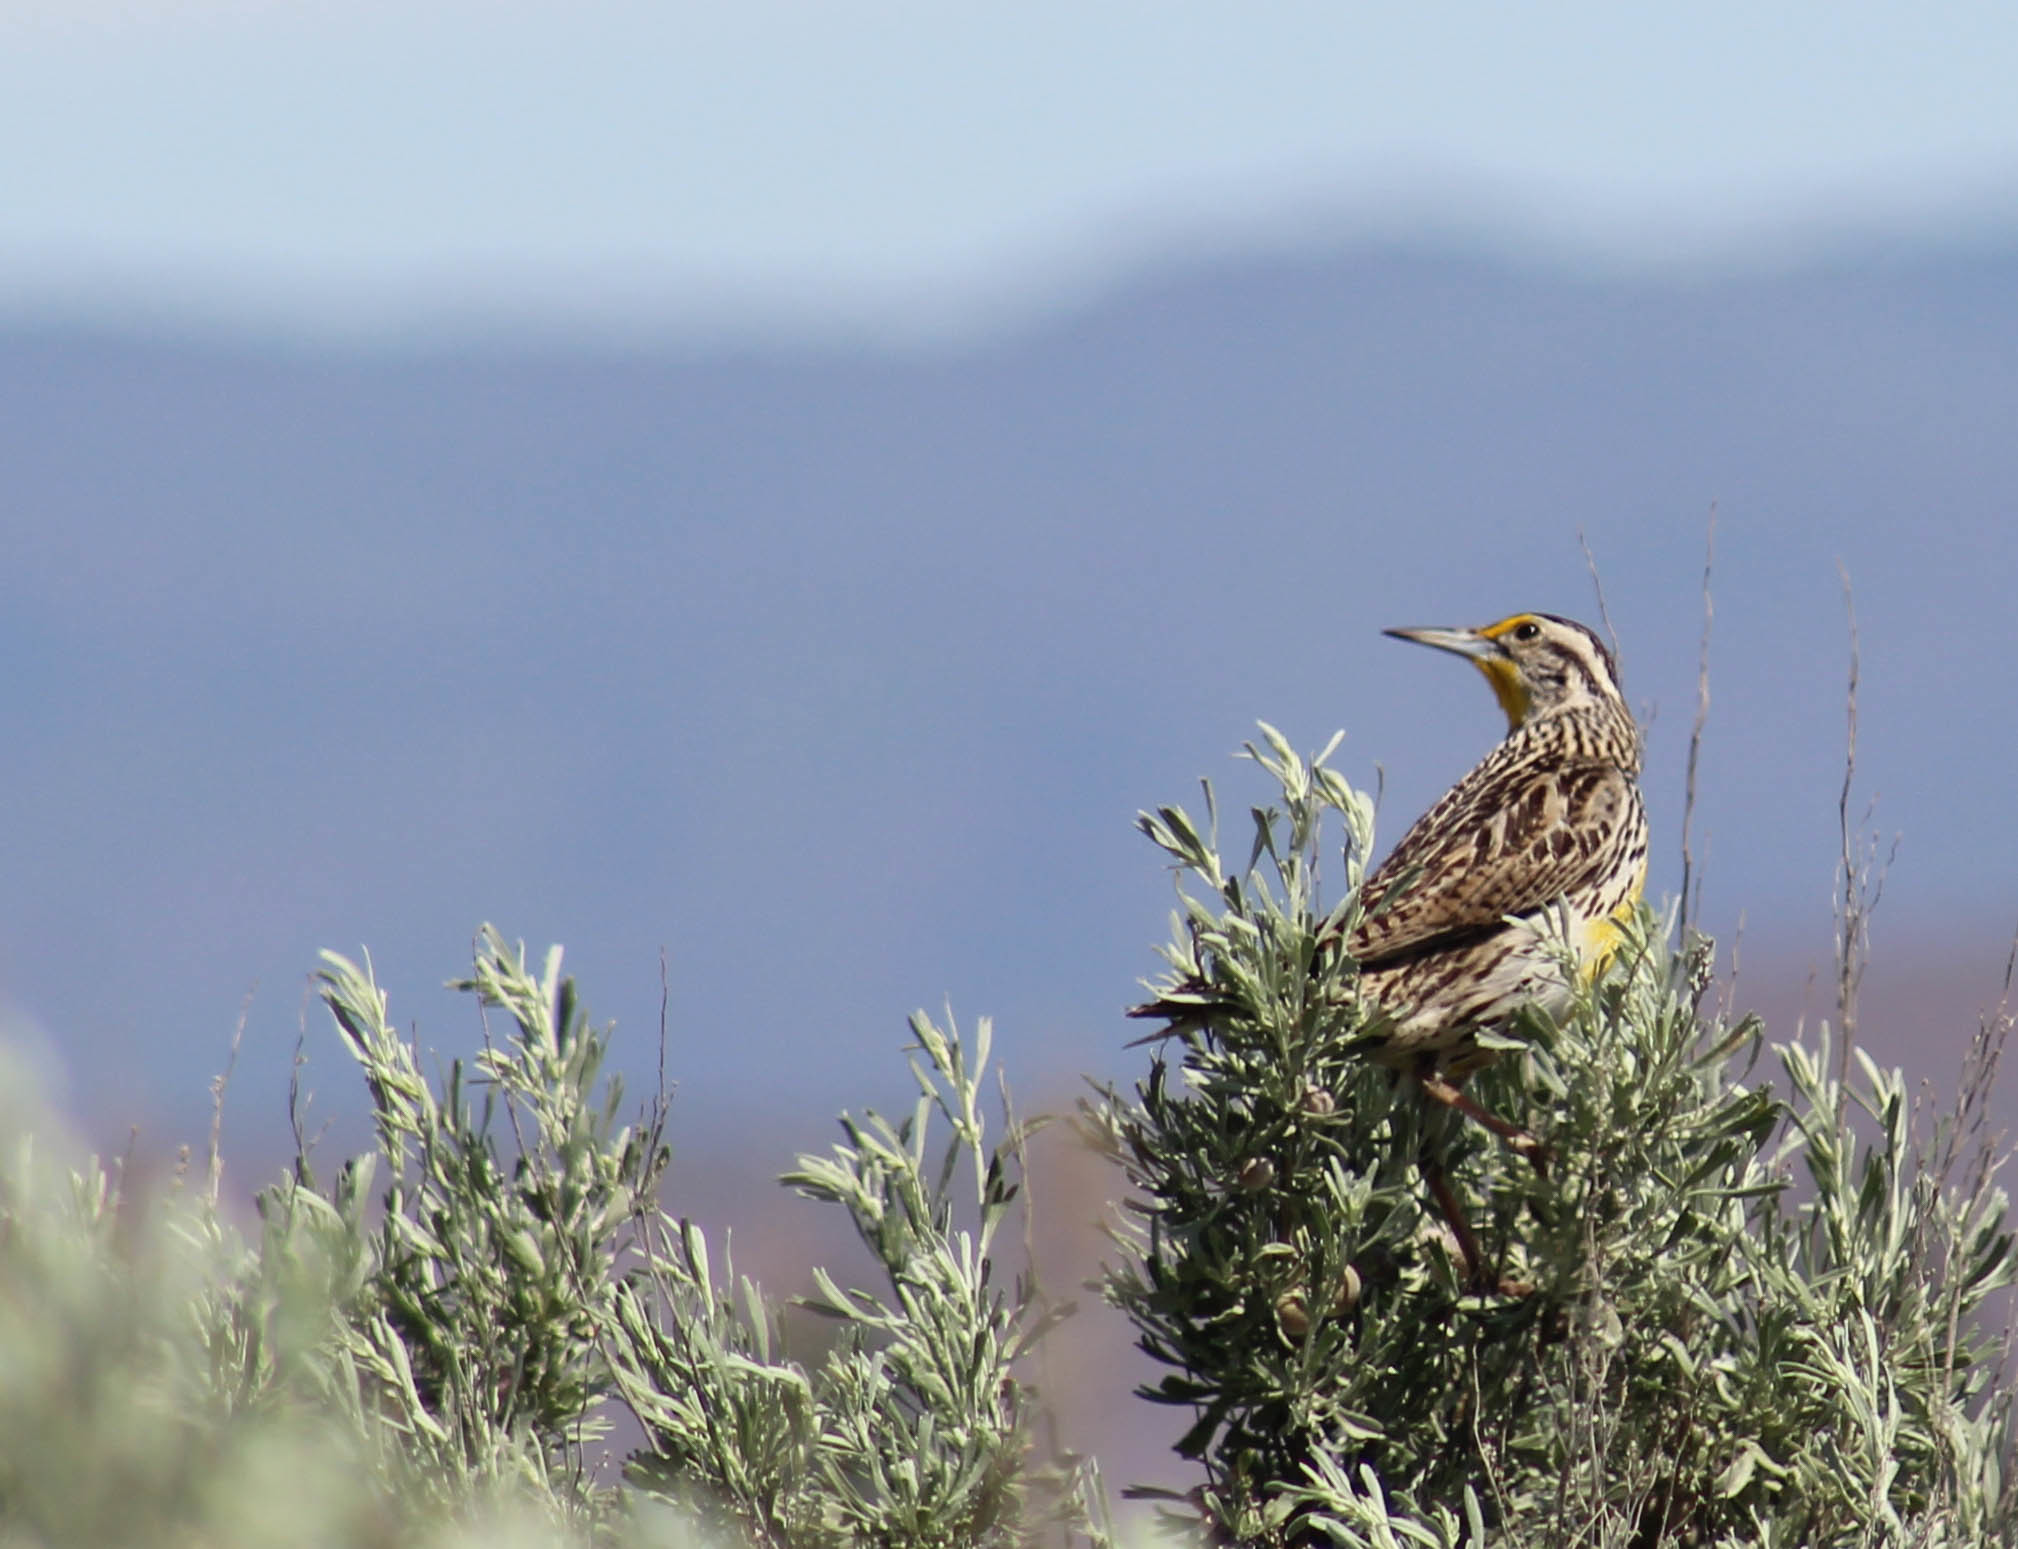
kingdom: Animalia
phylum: Chordata
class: Aves
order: Passeriformes
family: Icteridae
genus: Sturnella
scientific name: Sturnella neglecta
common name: Western meadowlark
